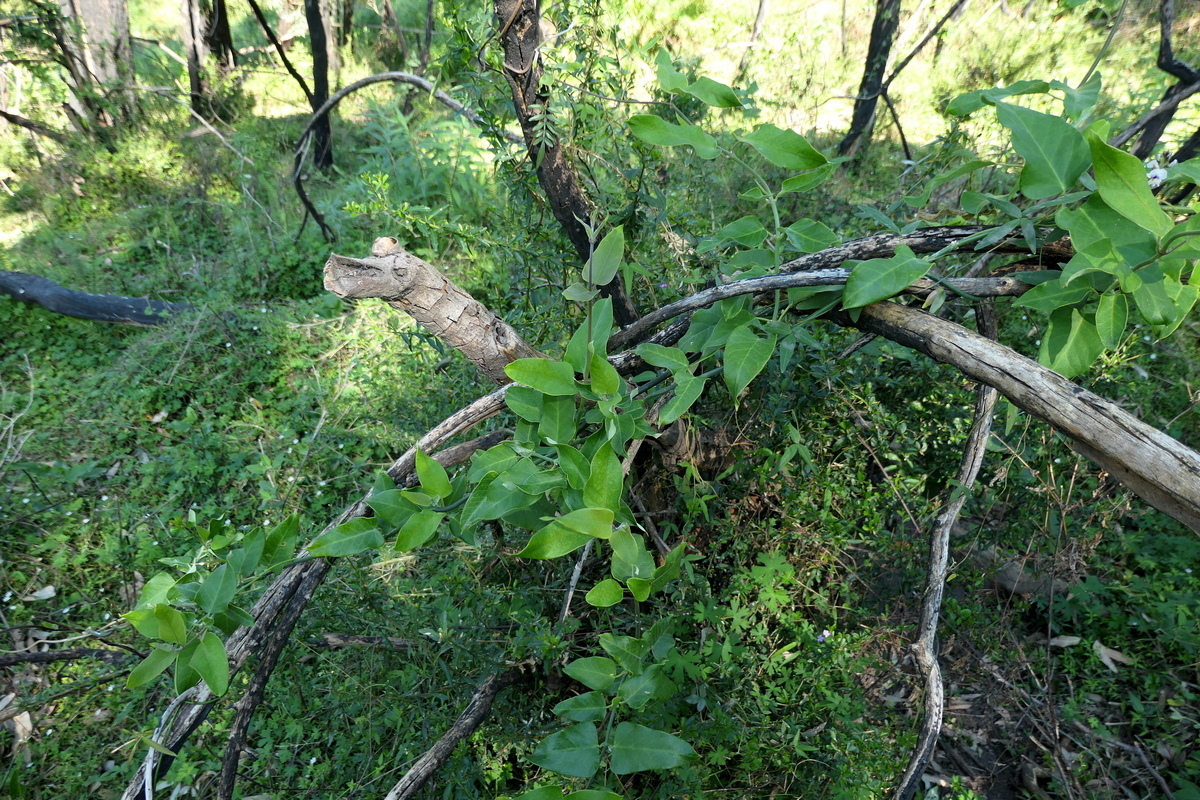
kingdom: Plantae
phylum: Tracheophyta
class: Magnoliopsida
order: Gentianales
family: Apocynaceae
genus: Araujia
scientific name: Araujia sericifera
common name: White bladderflower
